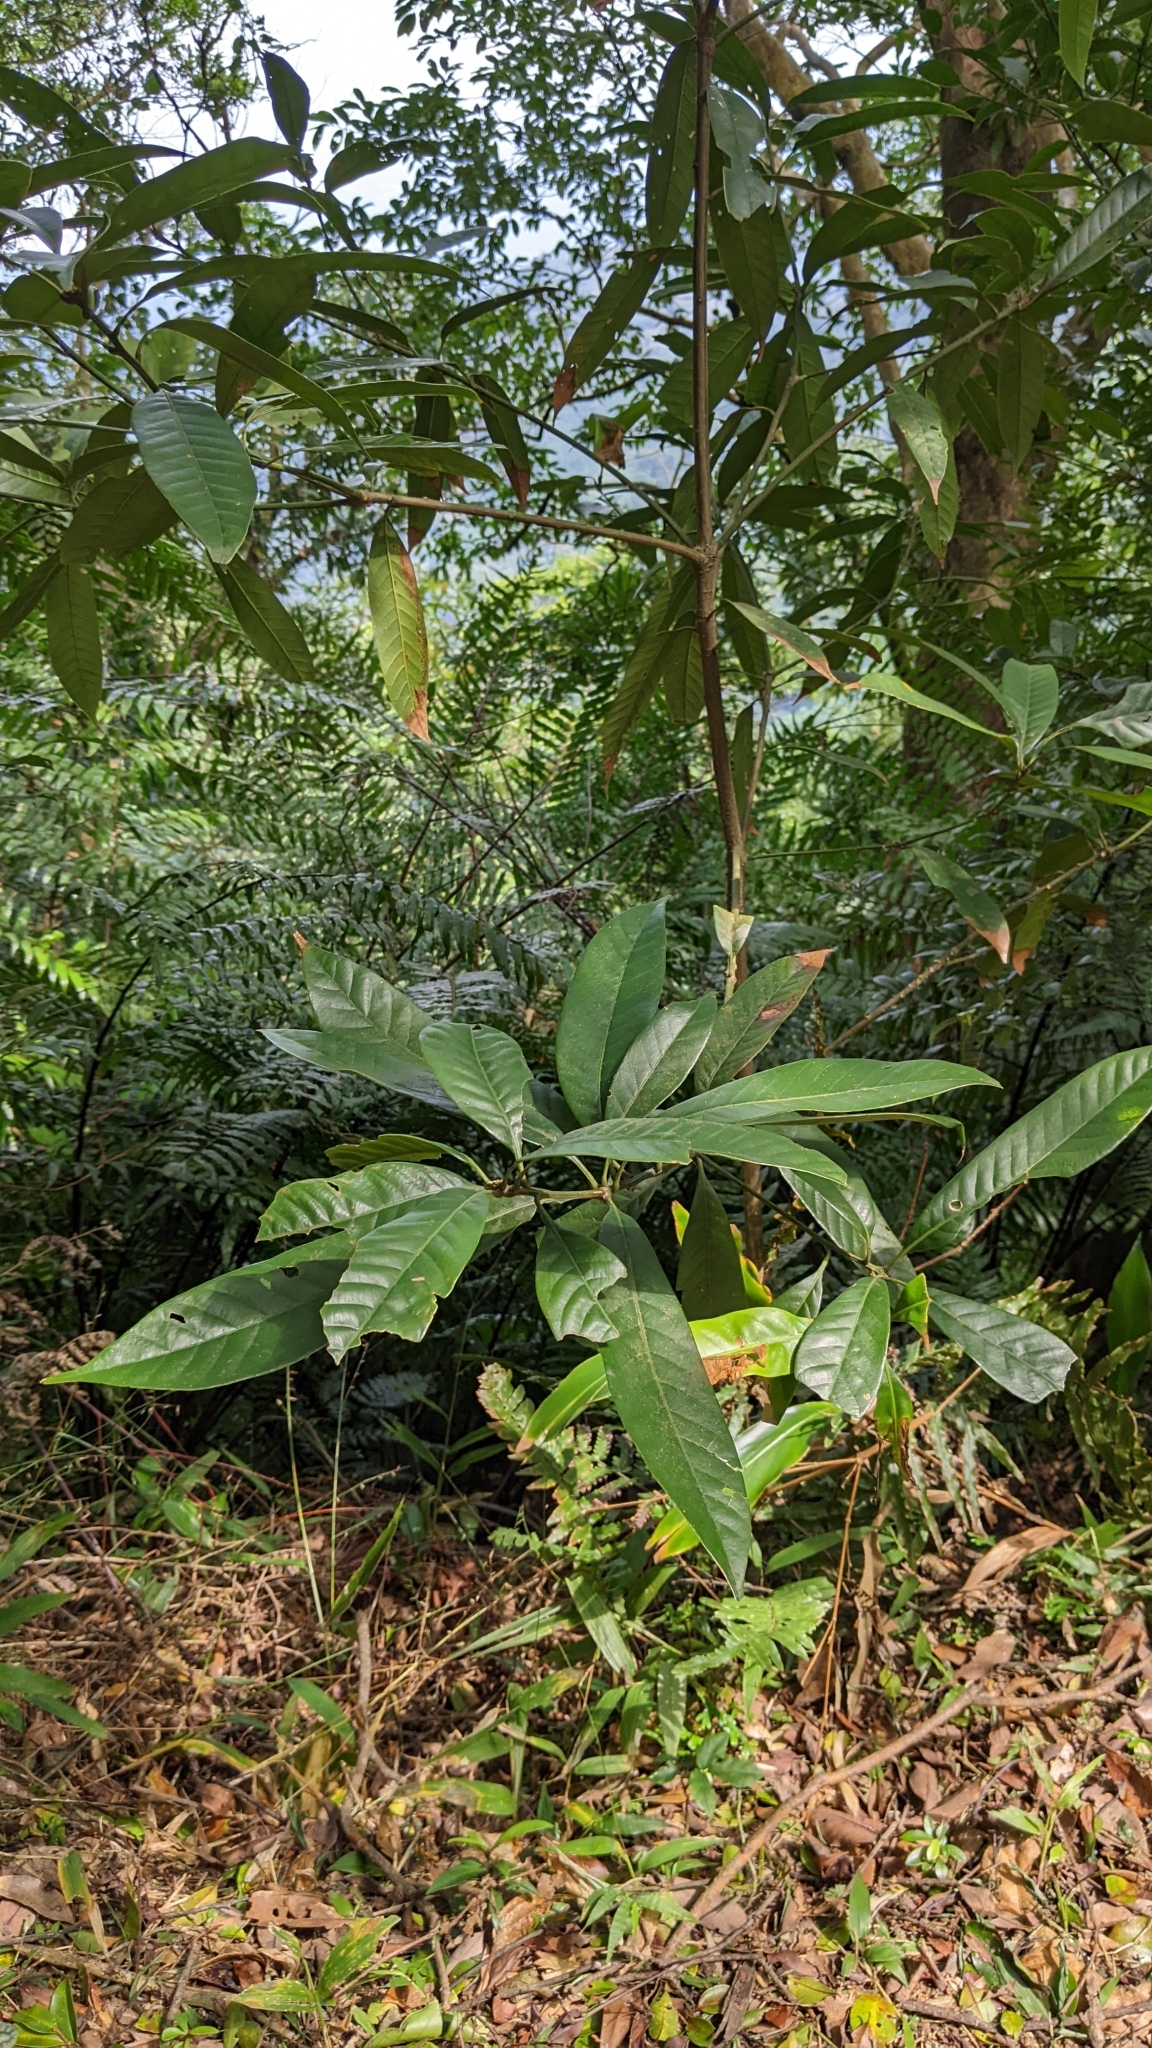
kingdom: Plantae
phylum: Tracheophyta
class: Magnoliopsida
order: Fagales
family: Fagaceae
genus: Lithocarpus
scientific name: Lithocarpus brevicaudatus
